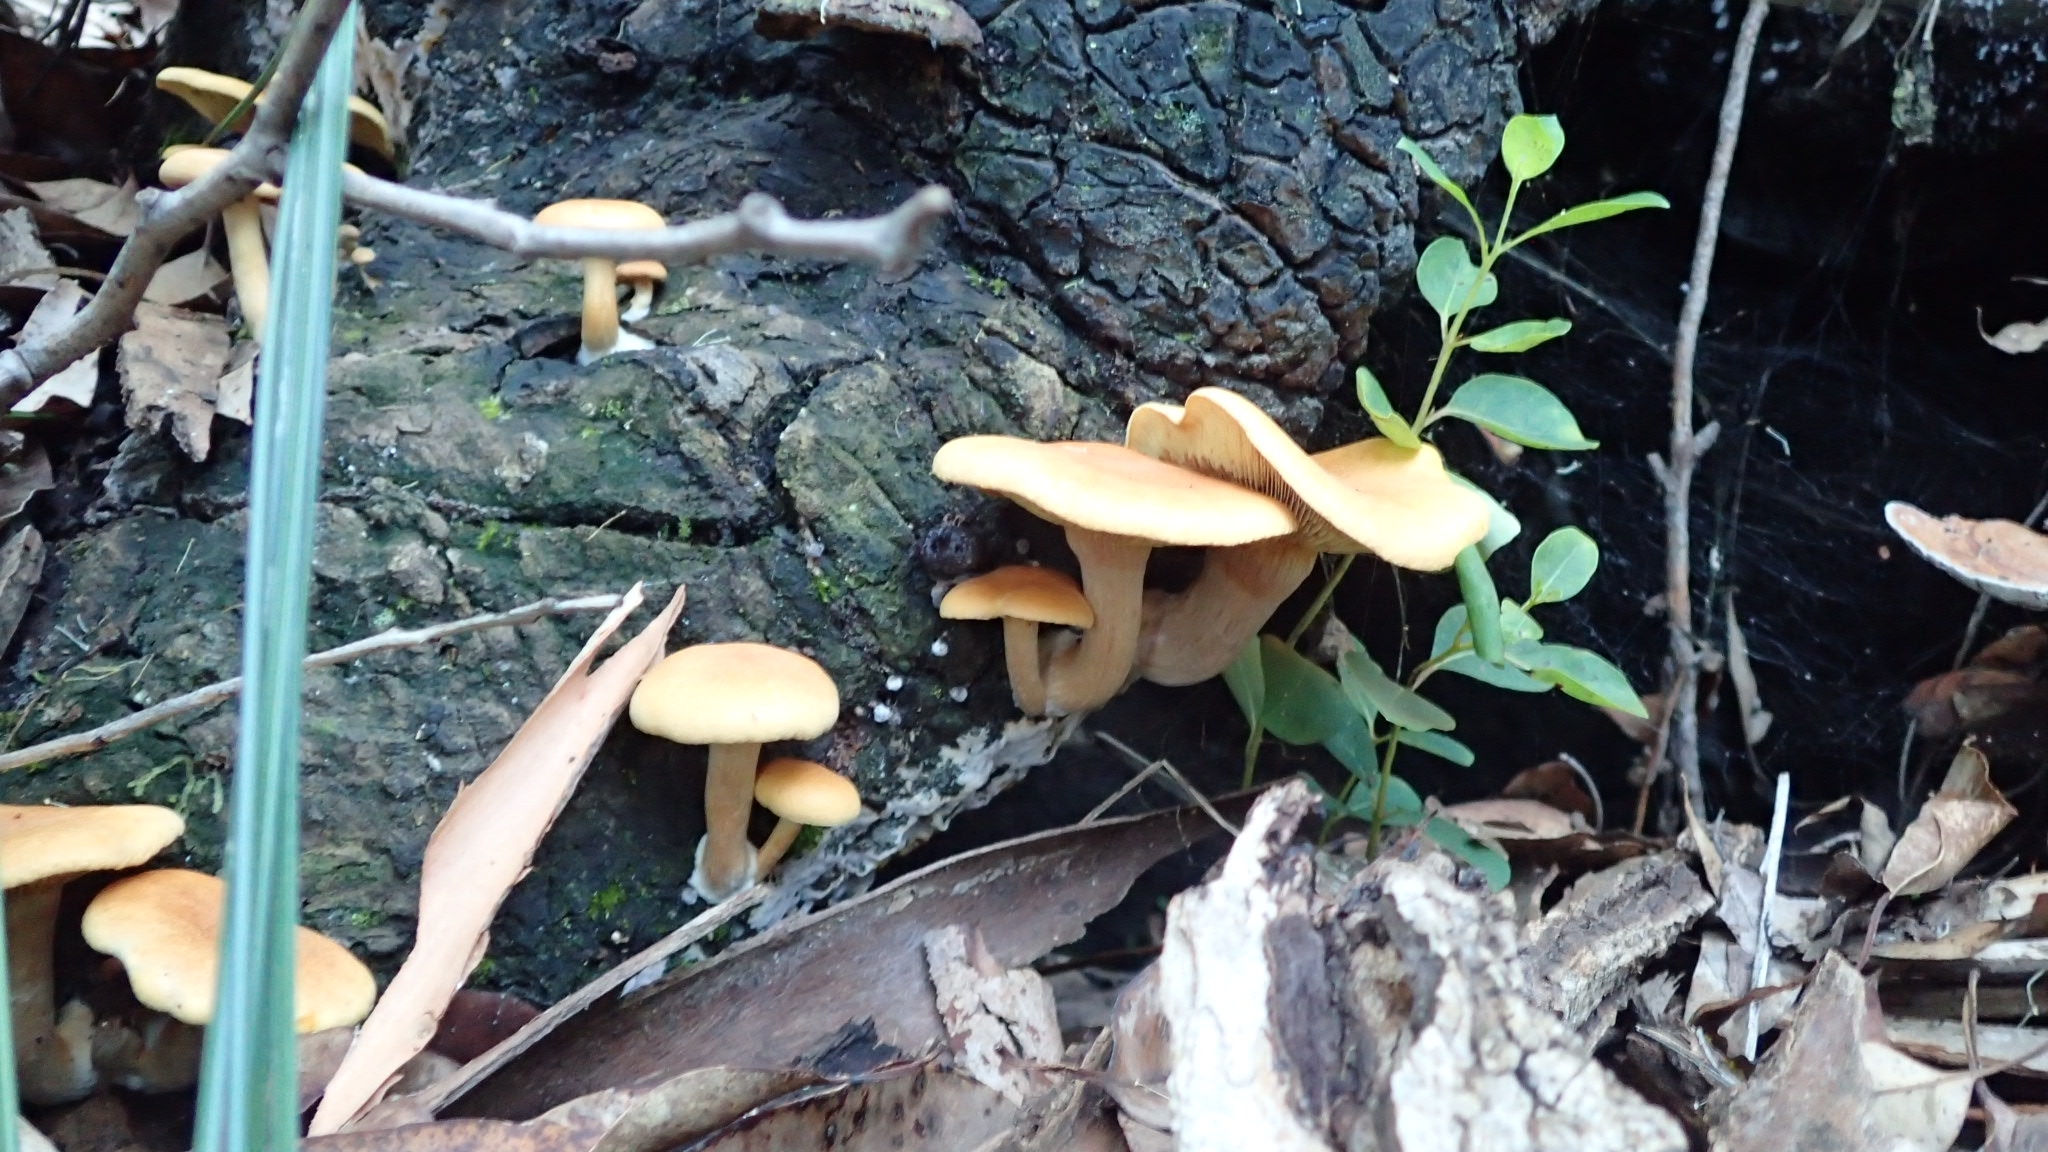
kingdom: Fungi
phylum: Basidiomycota
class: Agaricomycetes
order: Agaricales
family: Hymenogastraceae
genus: Gymnopilus
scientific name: Gymnopilus junonius
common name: Spectacular rustgill
